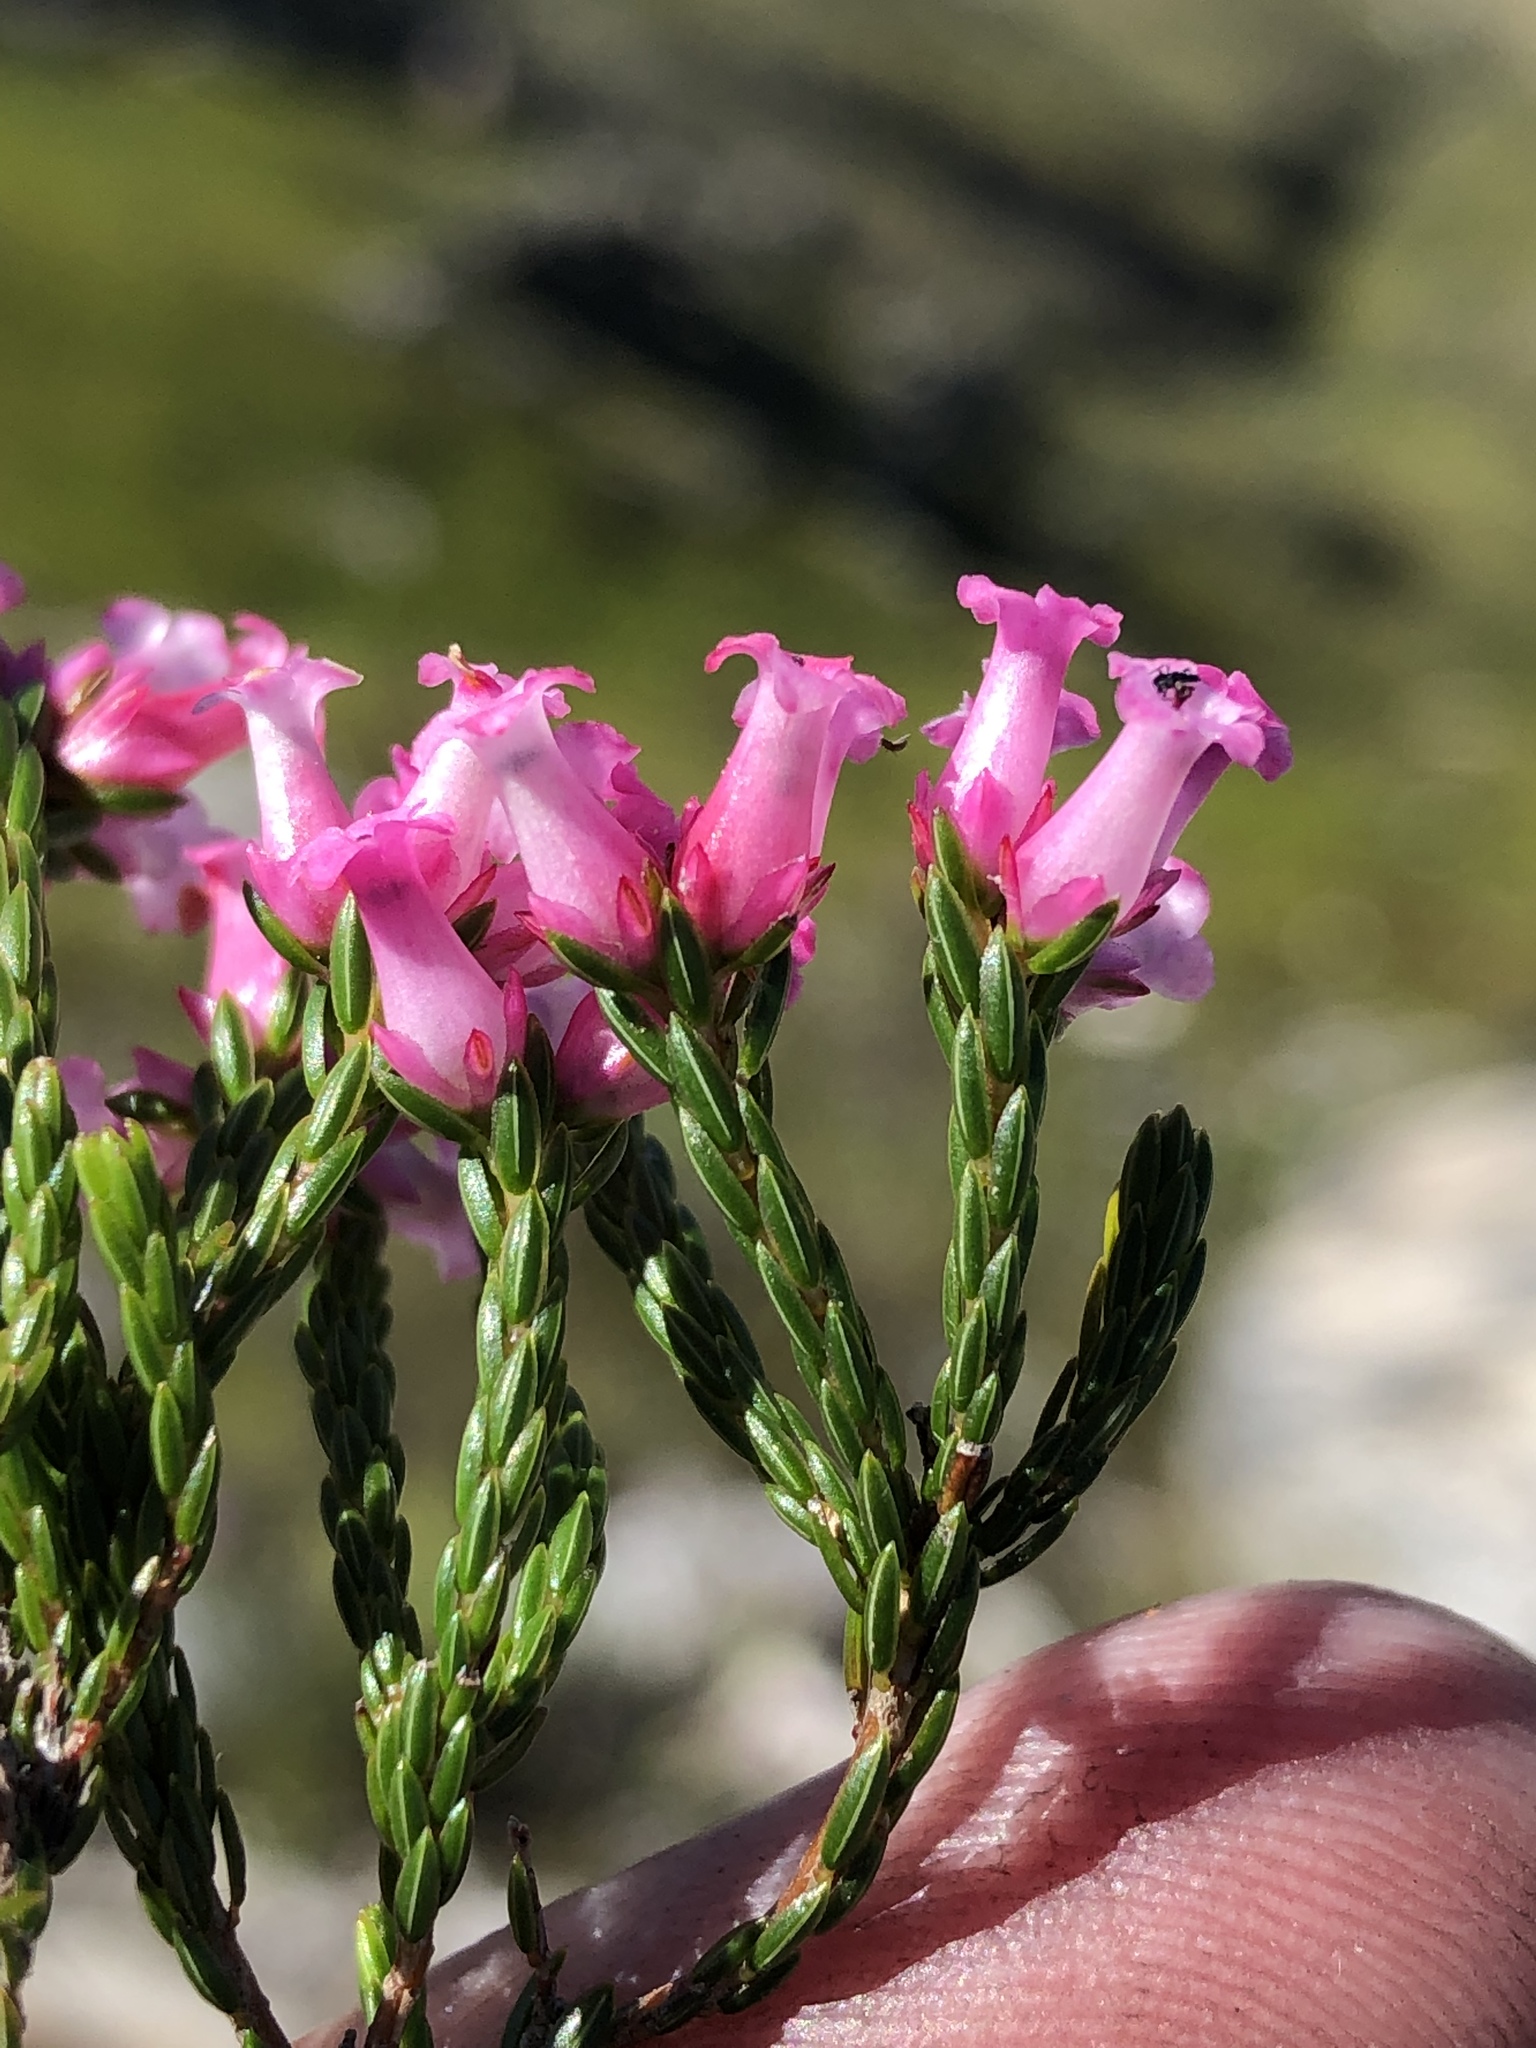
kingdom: Plantae
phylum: Tracheophyta
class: Magnoliopsida
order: Ericales
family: Ericaceae
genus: Erica
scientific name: Erica steinbergiana
